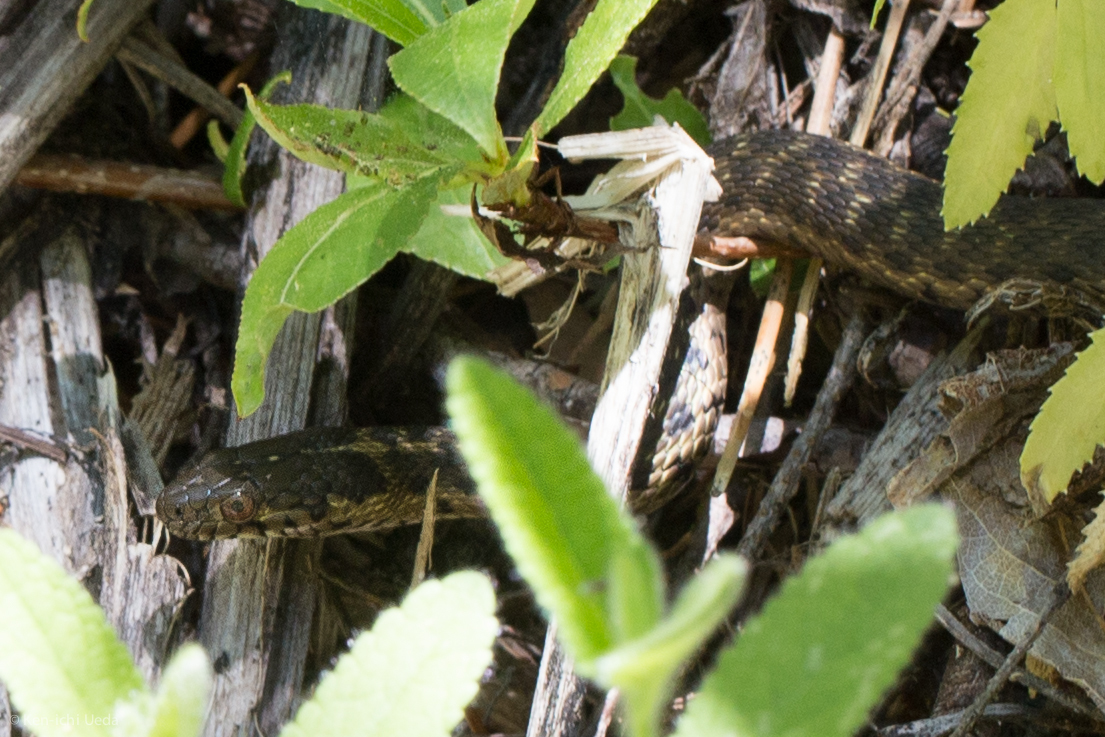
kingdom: Animalia
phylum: Chordata
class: Squamata
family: Colubridae
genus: Thamnophis
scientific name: Thamnophis couchii
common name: Western aquatic garter snake
